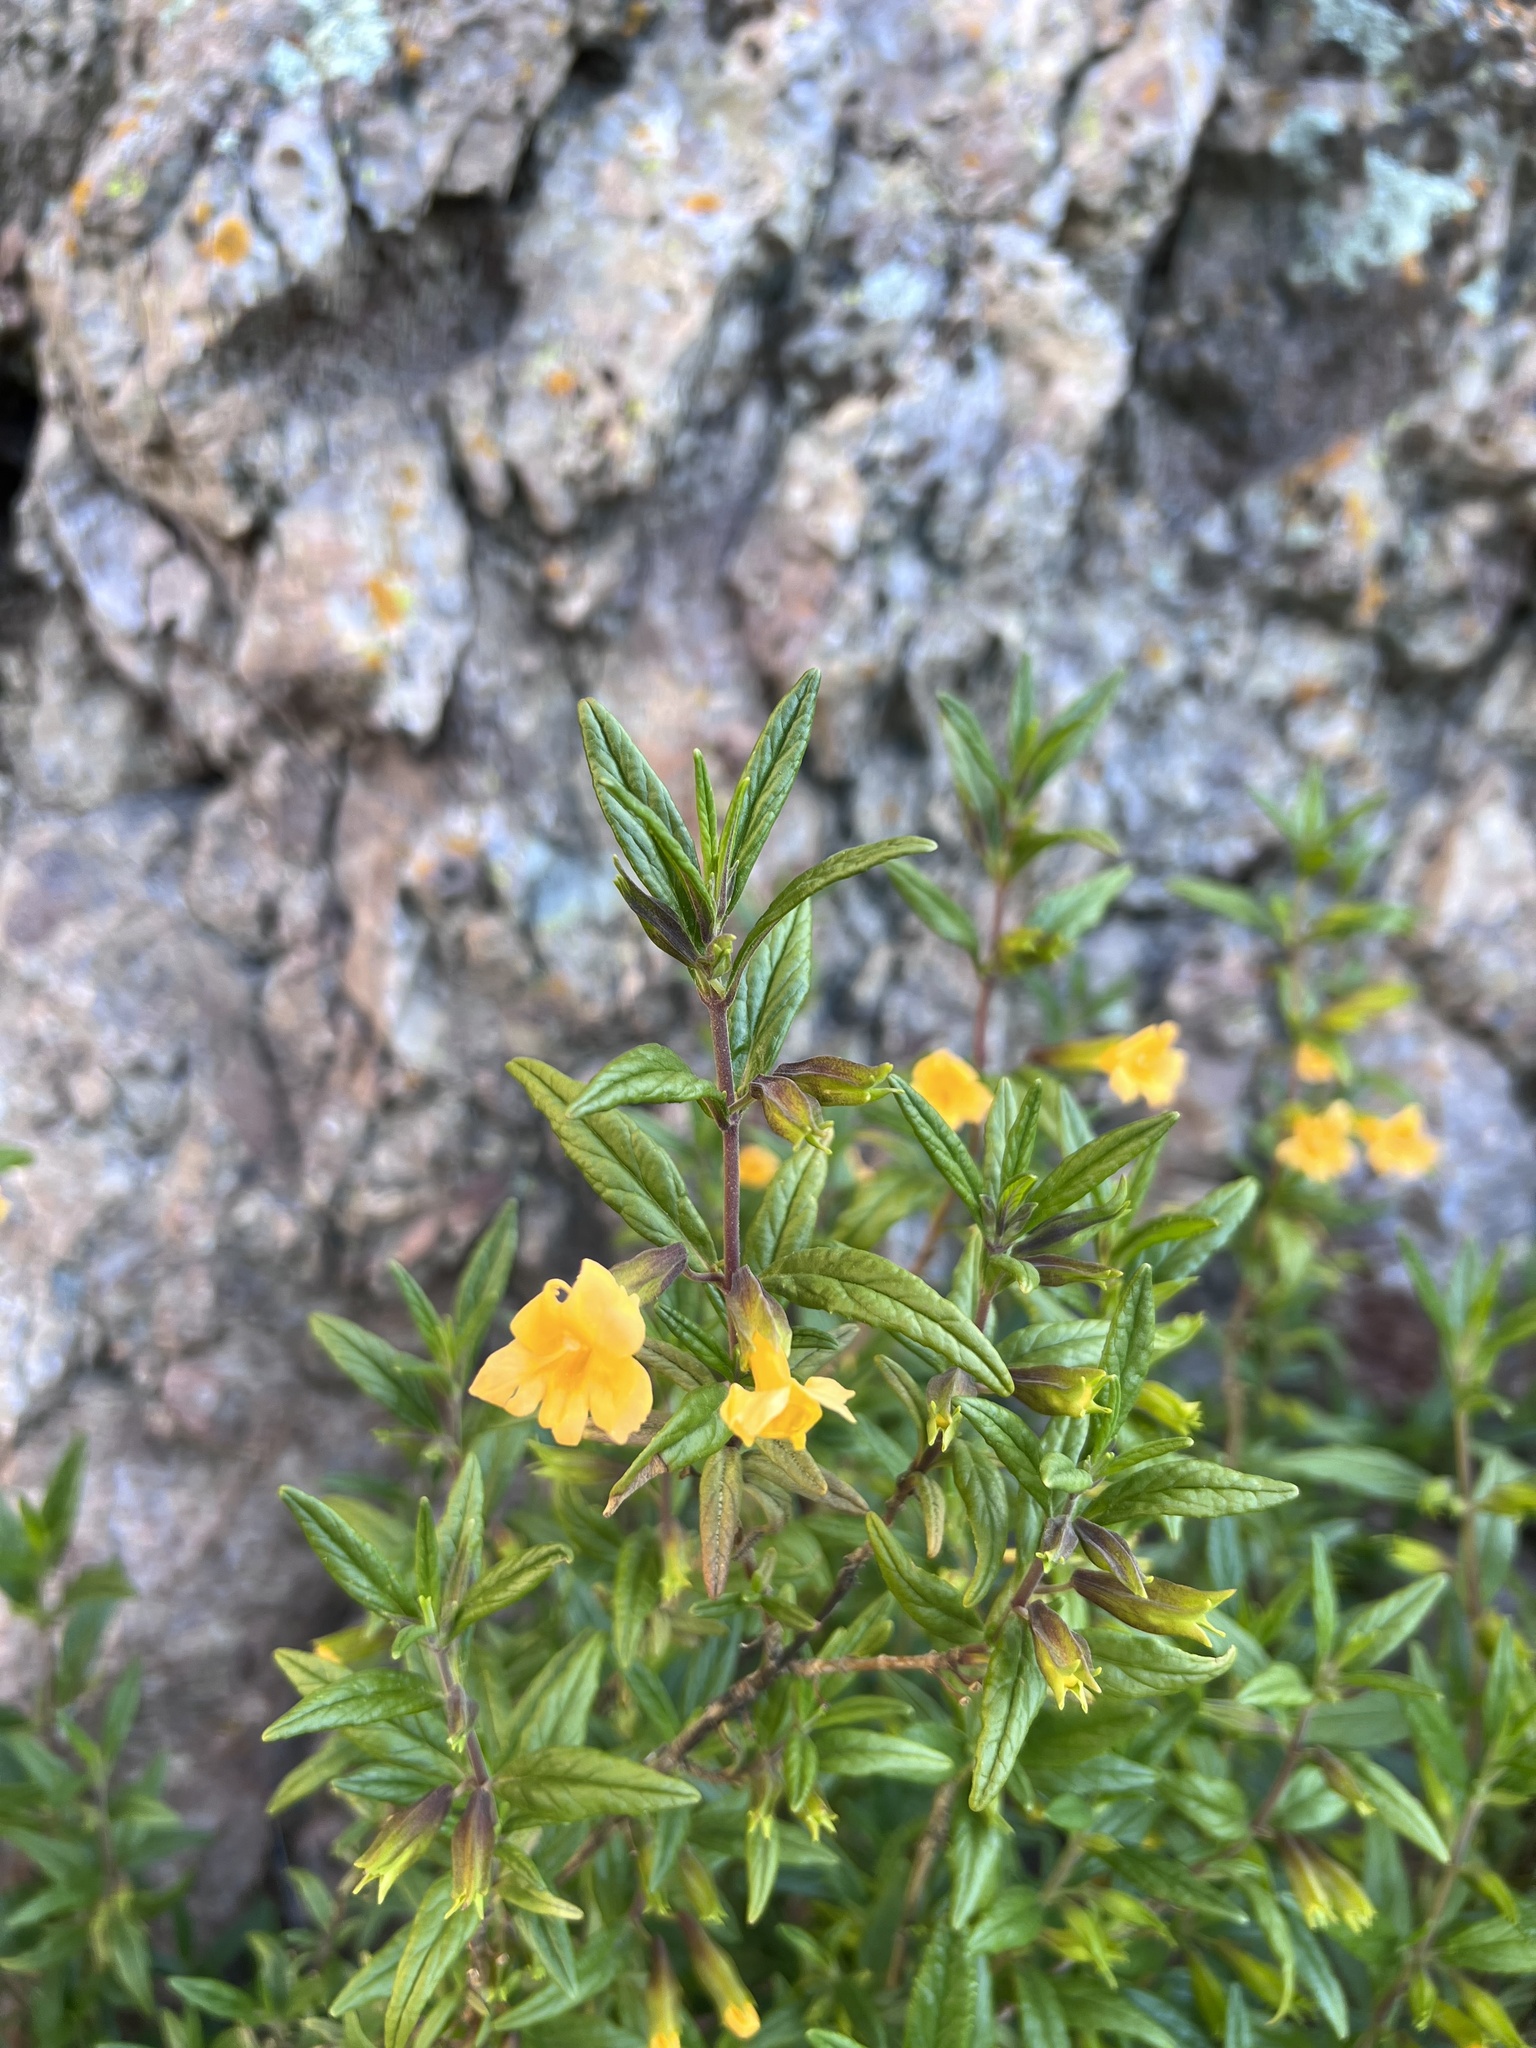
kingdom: Plantae
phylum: Tracheophyta
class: Magnoliopsida
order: Lamiales
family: Phrymaceae
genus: Diplacus
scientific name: Diplacus aurantiacus
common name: Bush monkey-flower
